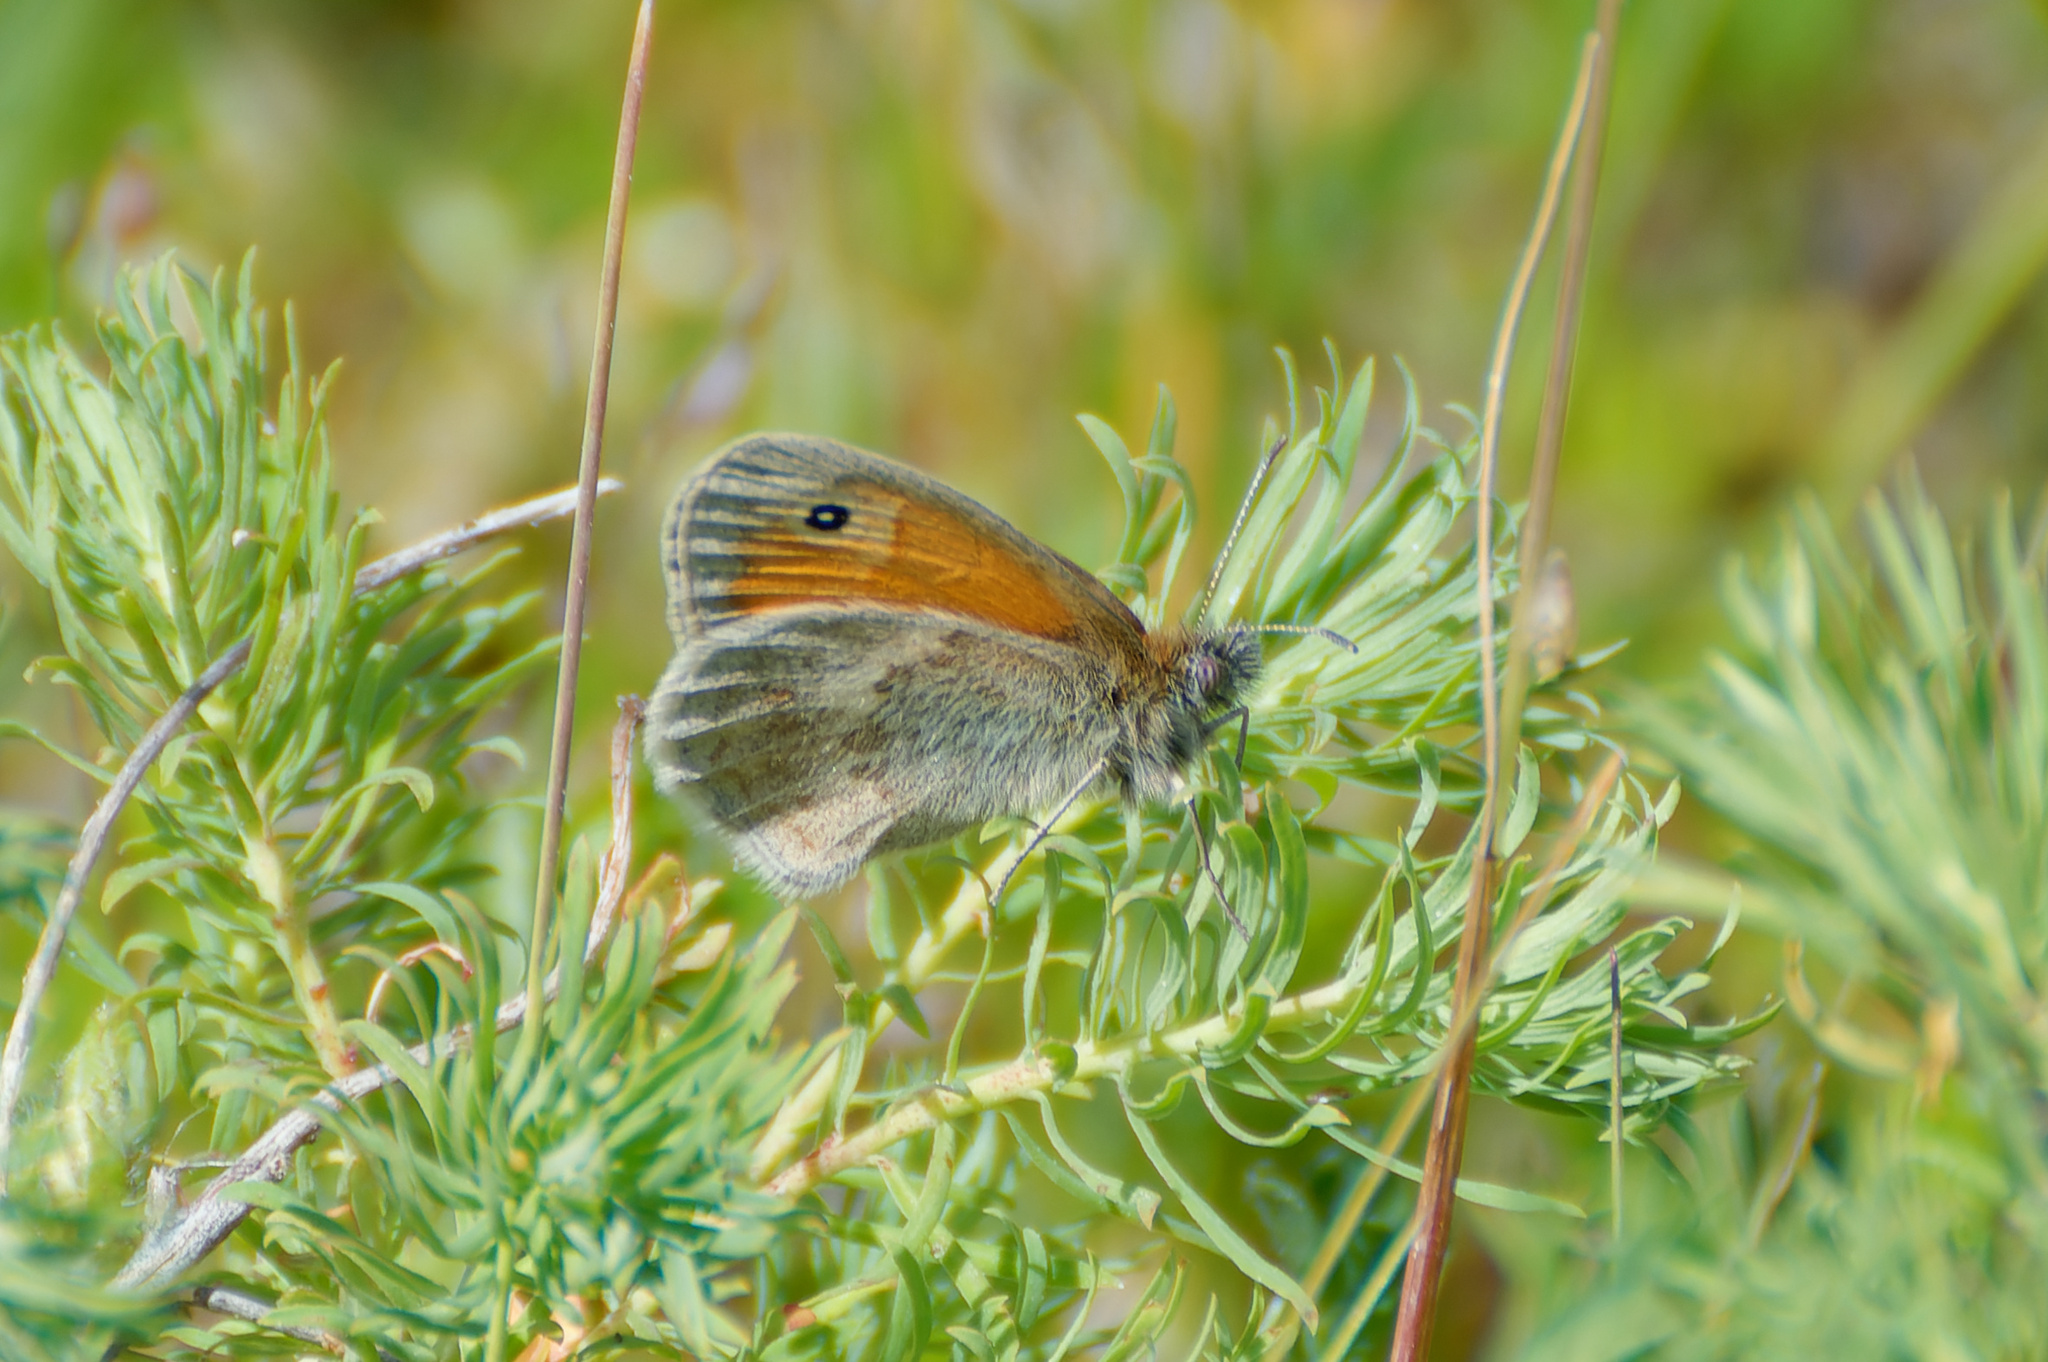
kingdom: Animalia
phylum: Arthropoda
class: Insecta
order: Lepidoptera
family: Nymphalidae
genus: Coenonympha
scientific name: Coenonympha pamphilus
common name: Small heath
